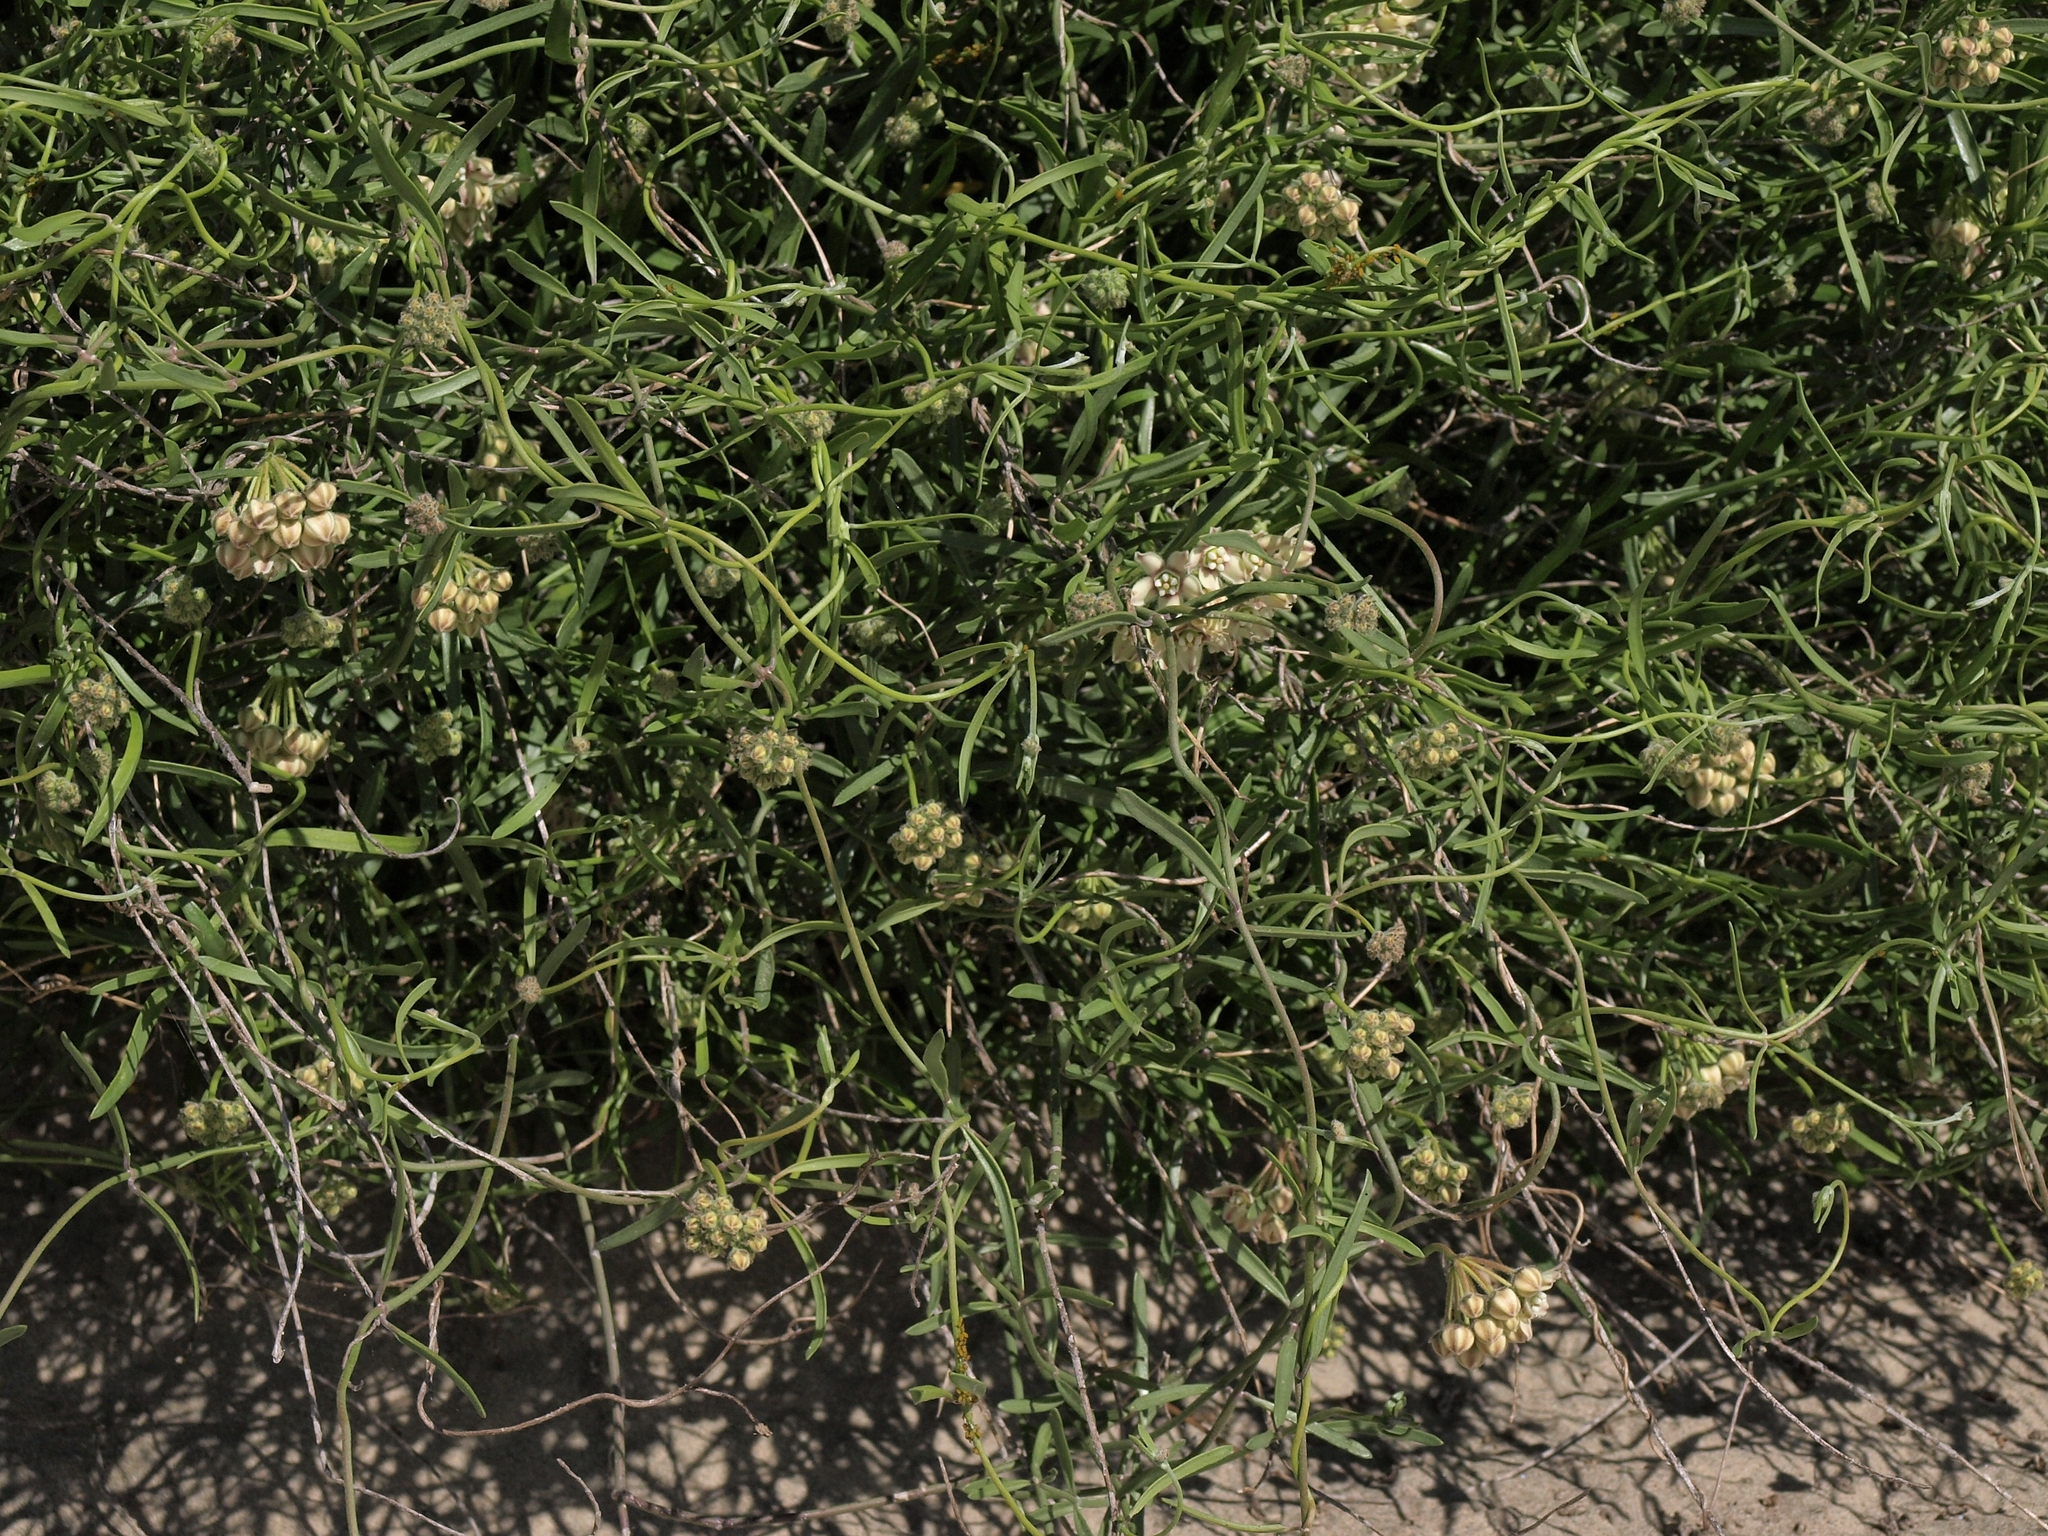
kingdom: Plantae
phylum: Tracheophyta
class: Magnoliopsida
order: Gentianales
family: Apocynaceae
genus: Funastrum
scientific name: Funastrum arenarium
